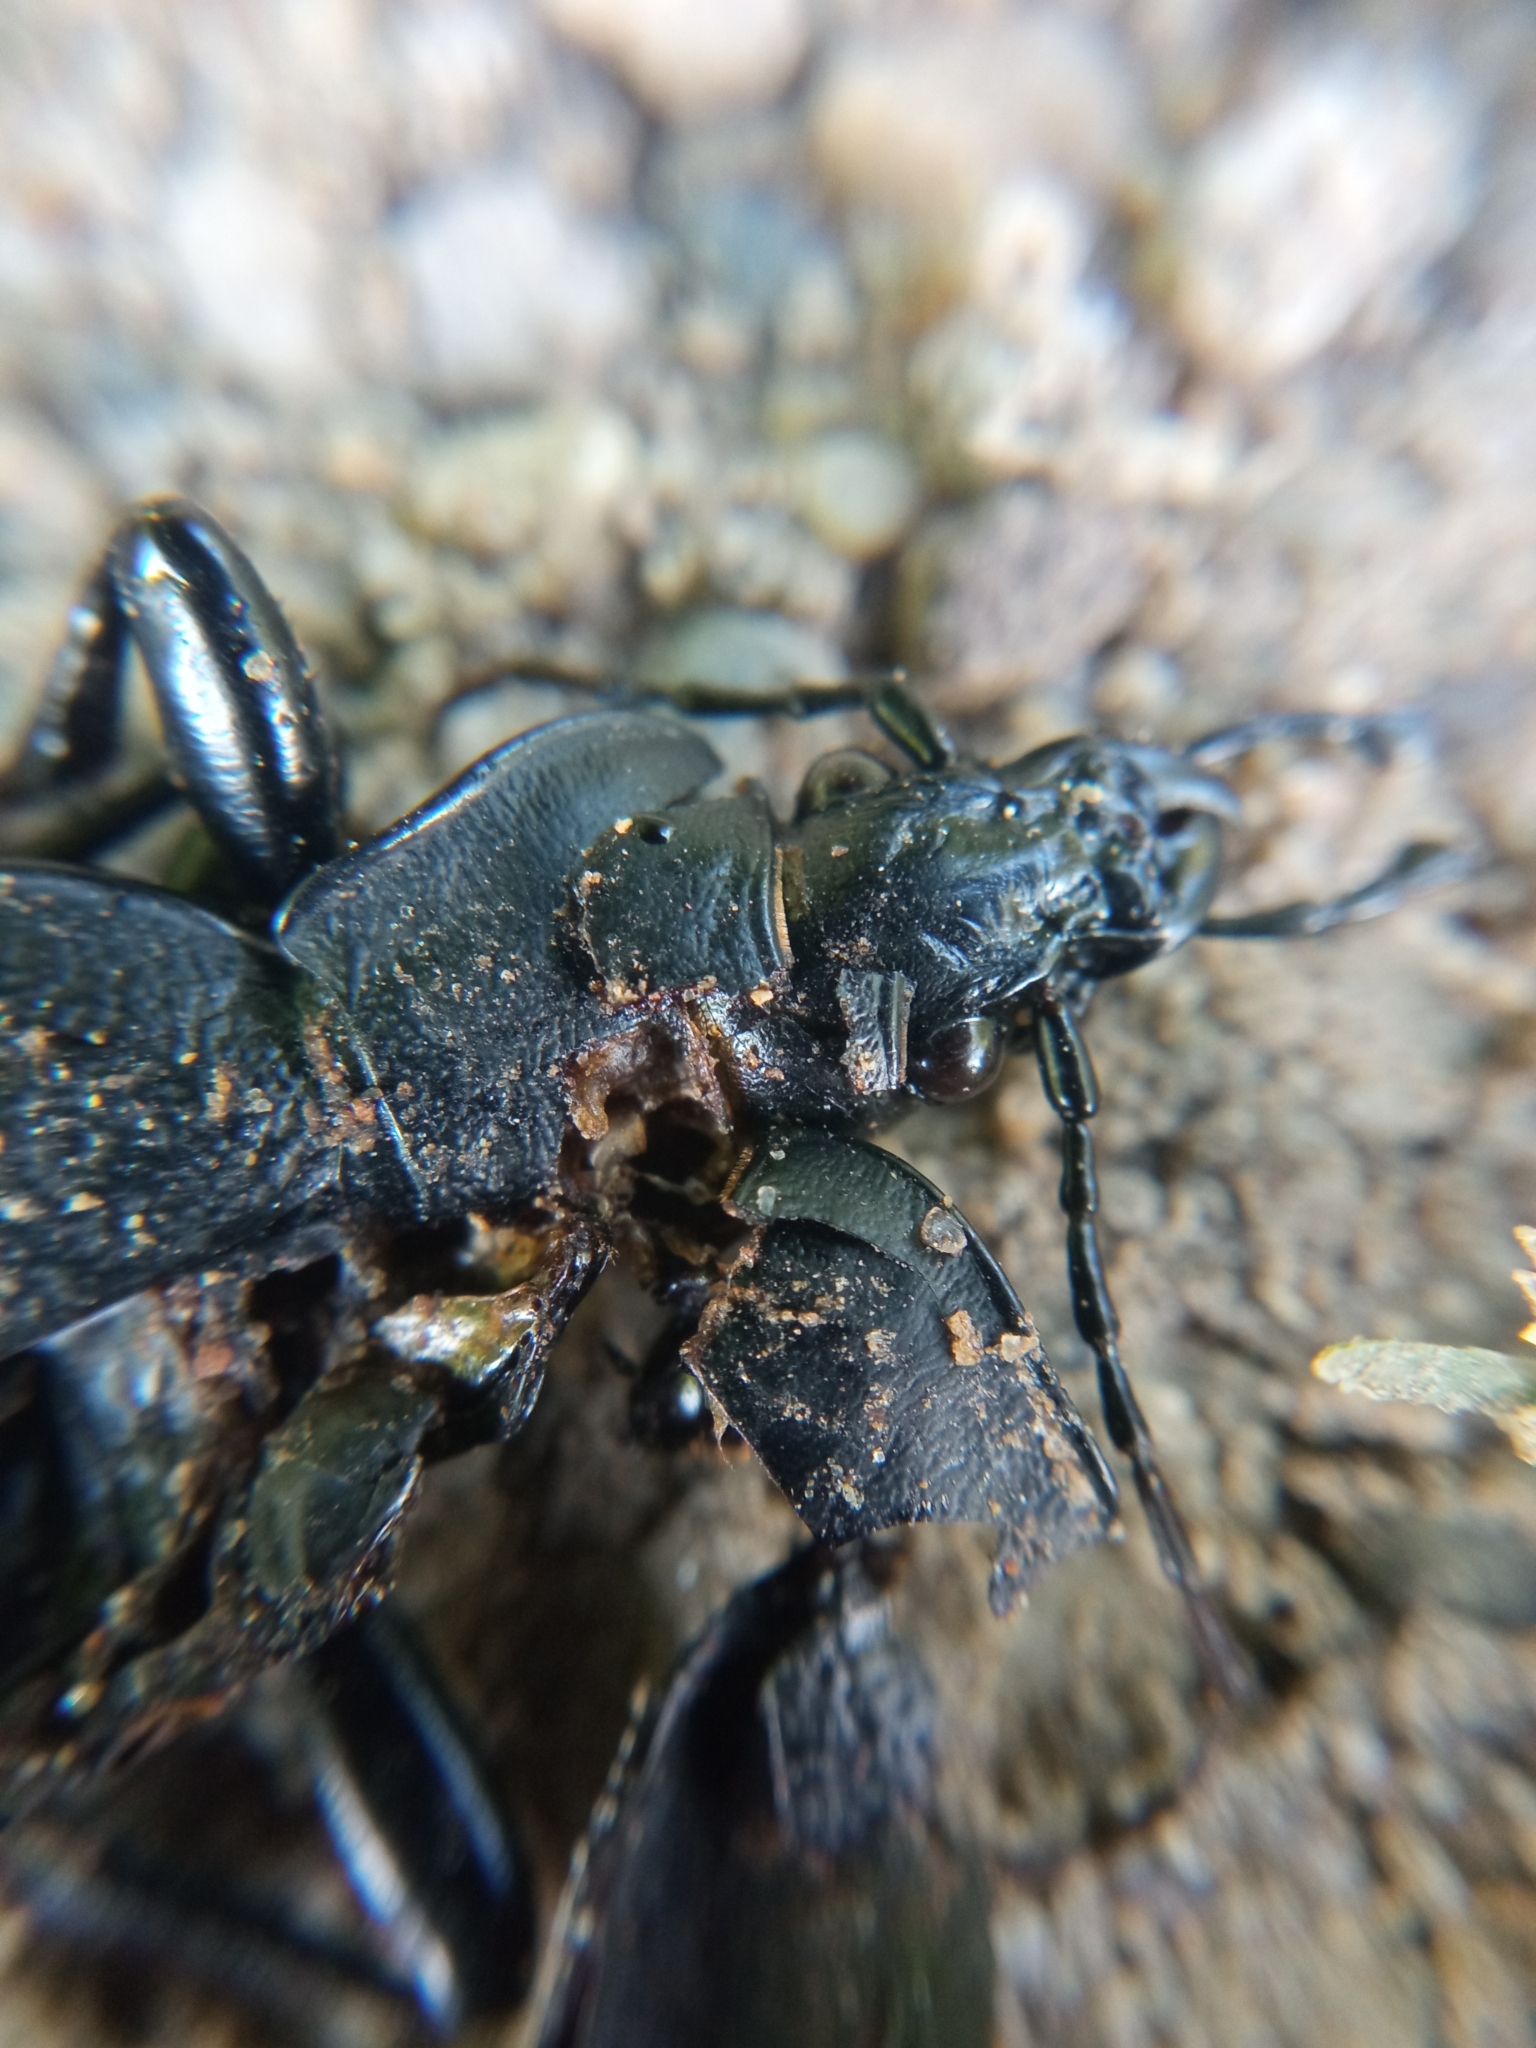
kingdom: Animalia
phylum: Arthropoda
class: Insecta
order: Coleoptera
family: Carabidae
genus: Carabus
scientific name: Carabus coriaceus
